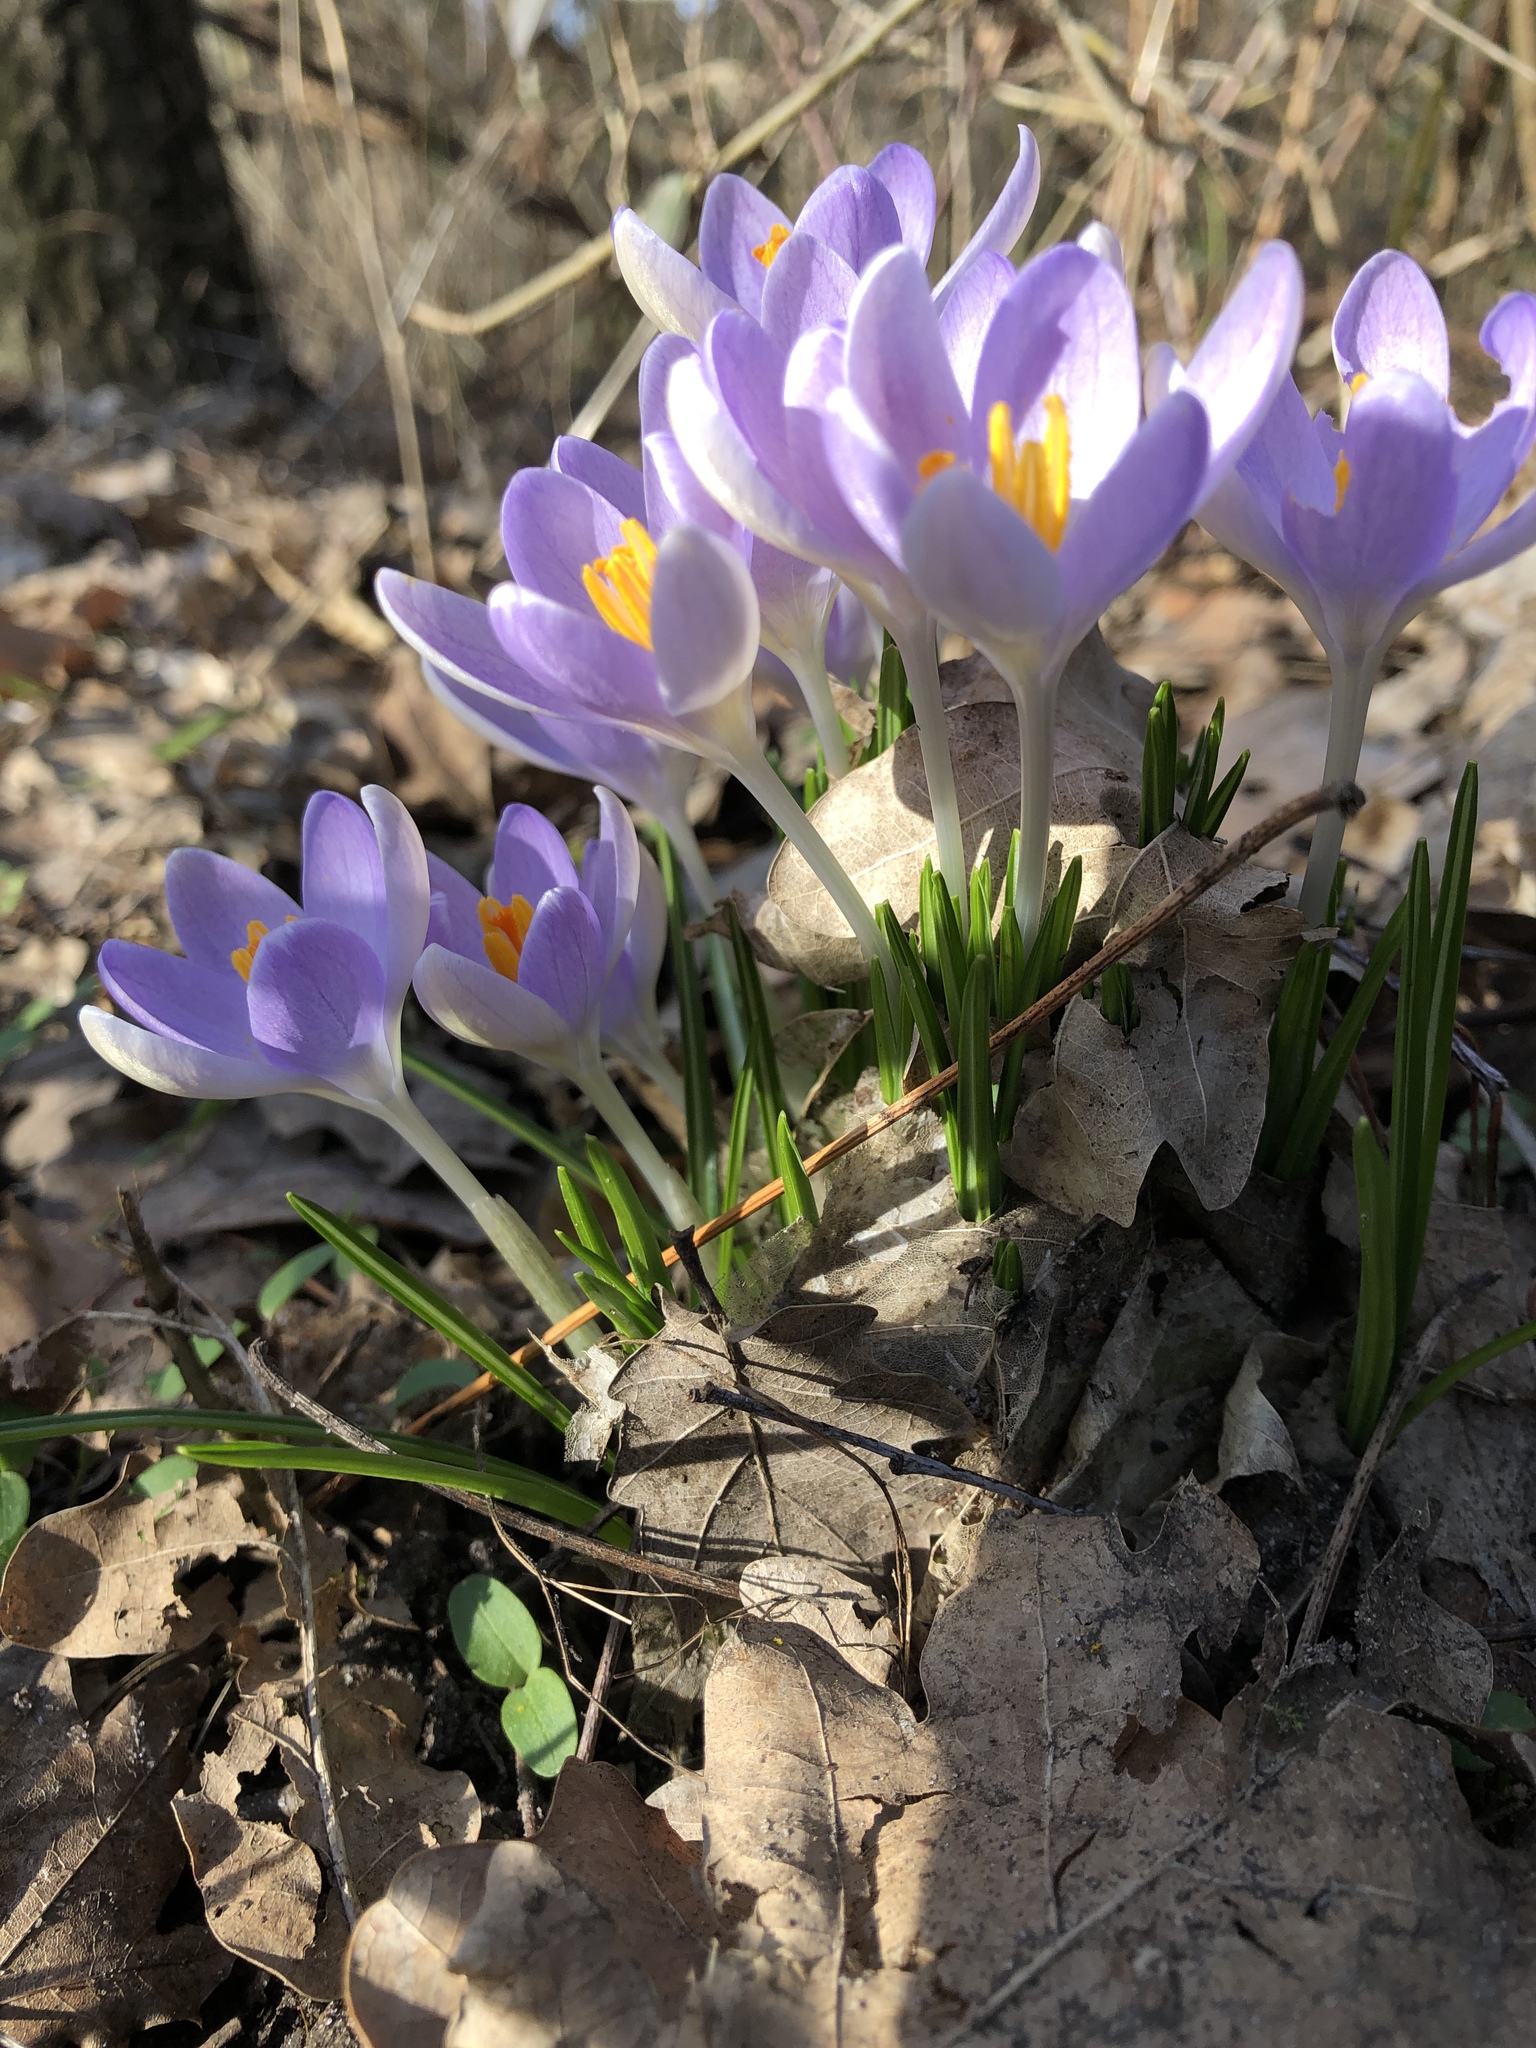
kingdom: Plantae
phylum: Tracheophyta
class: Liliopsida
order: Asparagales
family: Iridaceae
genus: Crocus
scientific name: Crocus tommasinianus
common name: Early crocus
